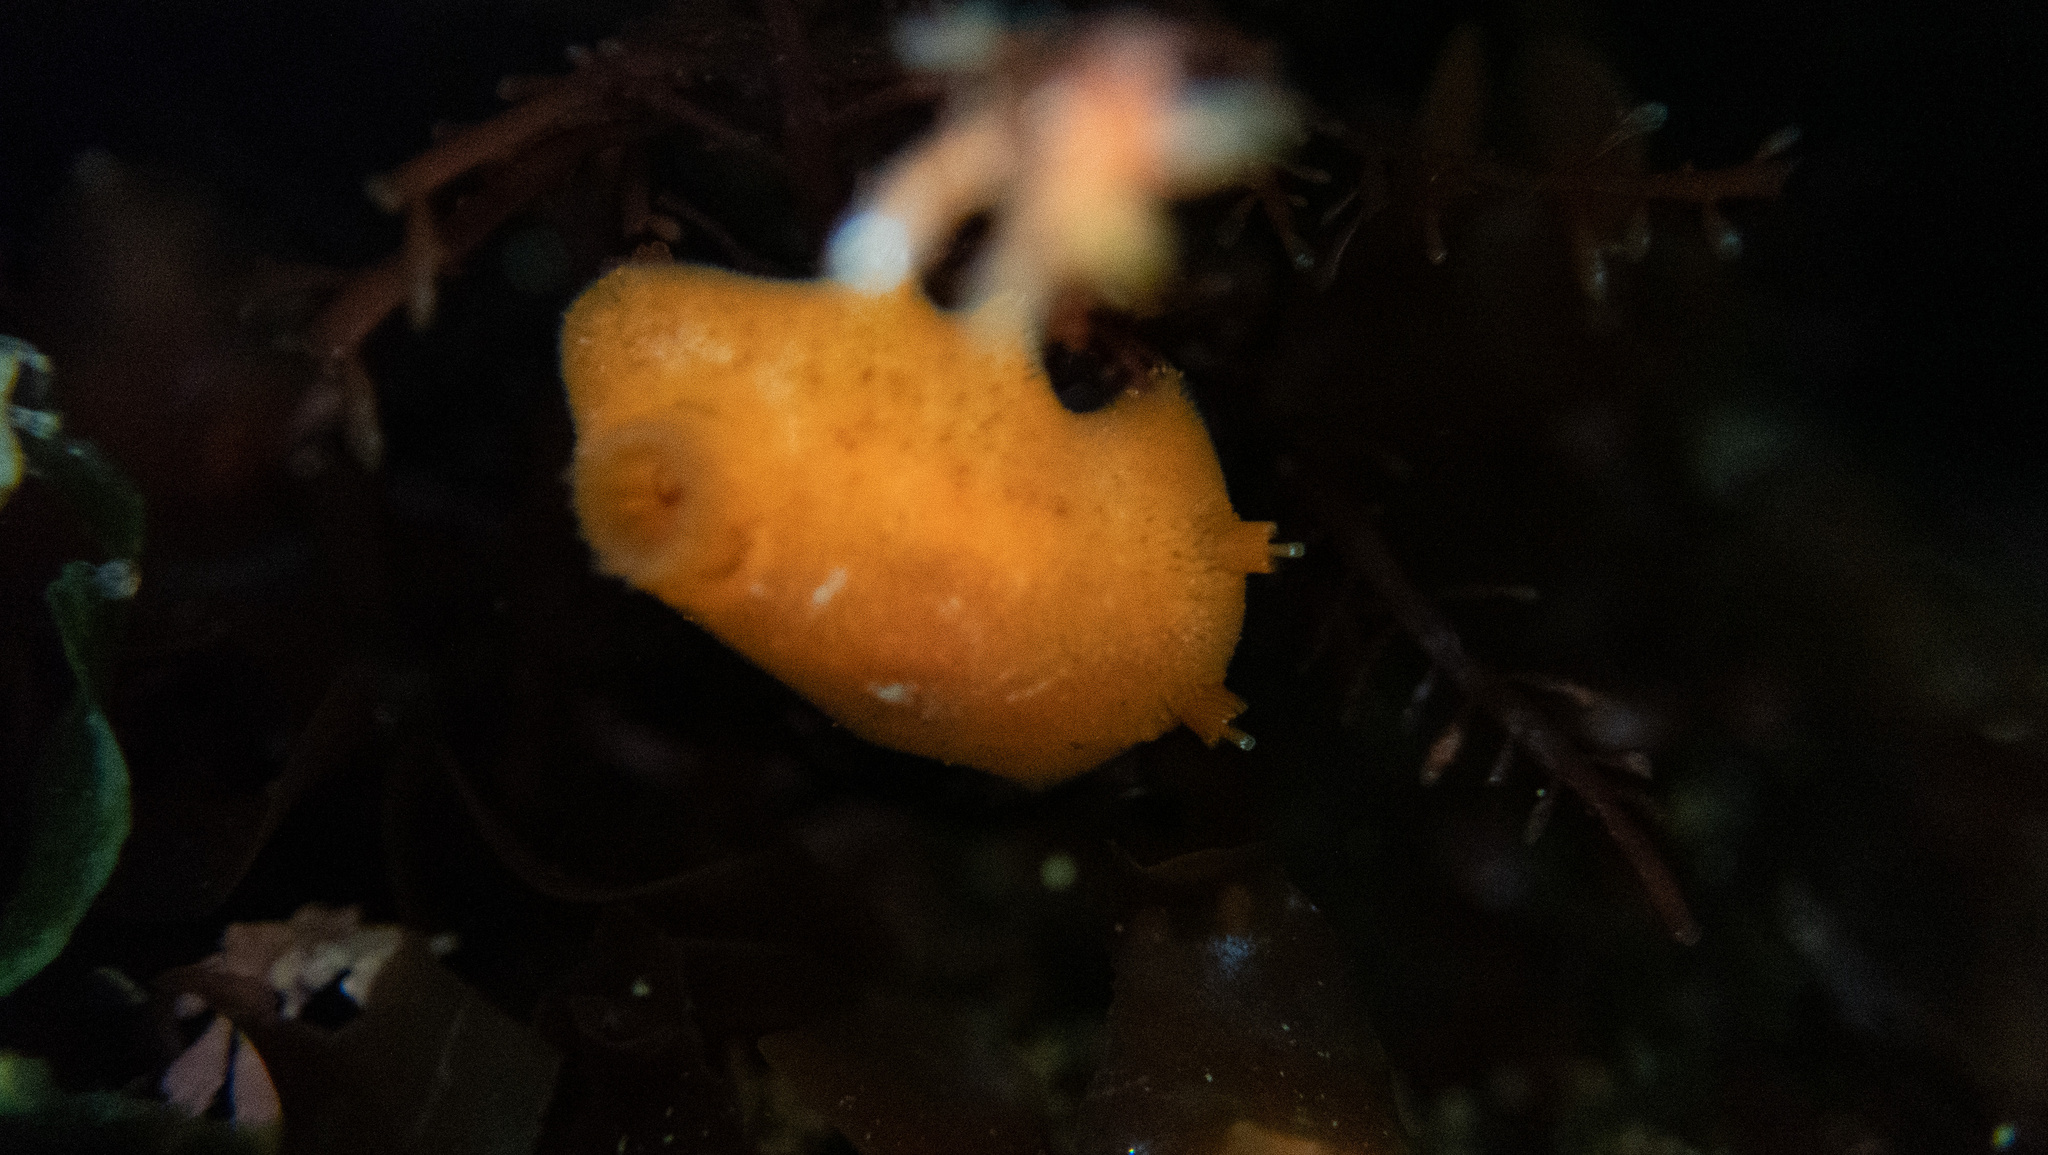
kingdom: Animalia
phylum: Mollusca
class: Gastropoda
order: Nudibranchia
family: Discodorididae
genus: Rostanga
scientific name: Rostanga pulchra
